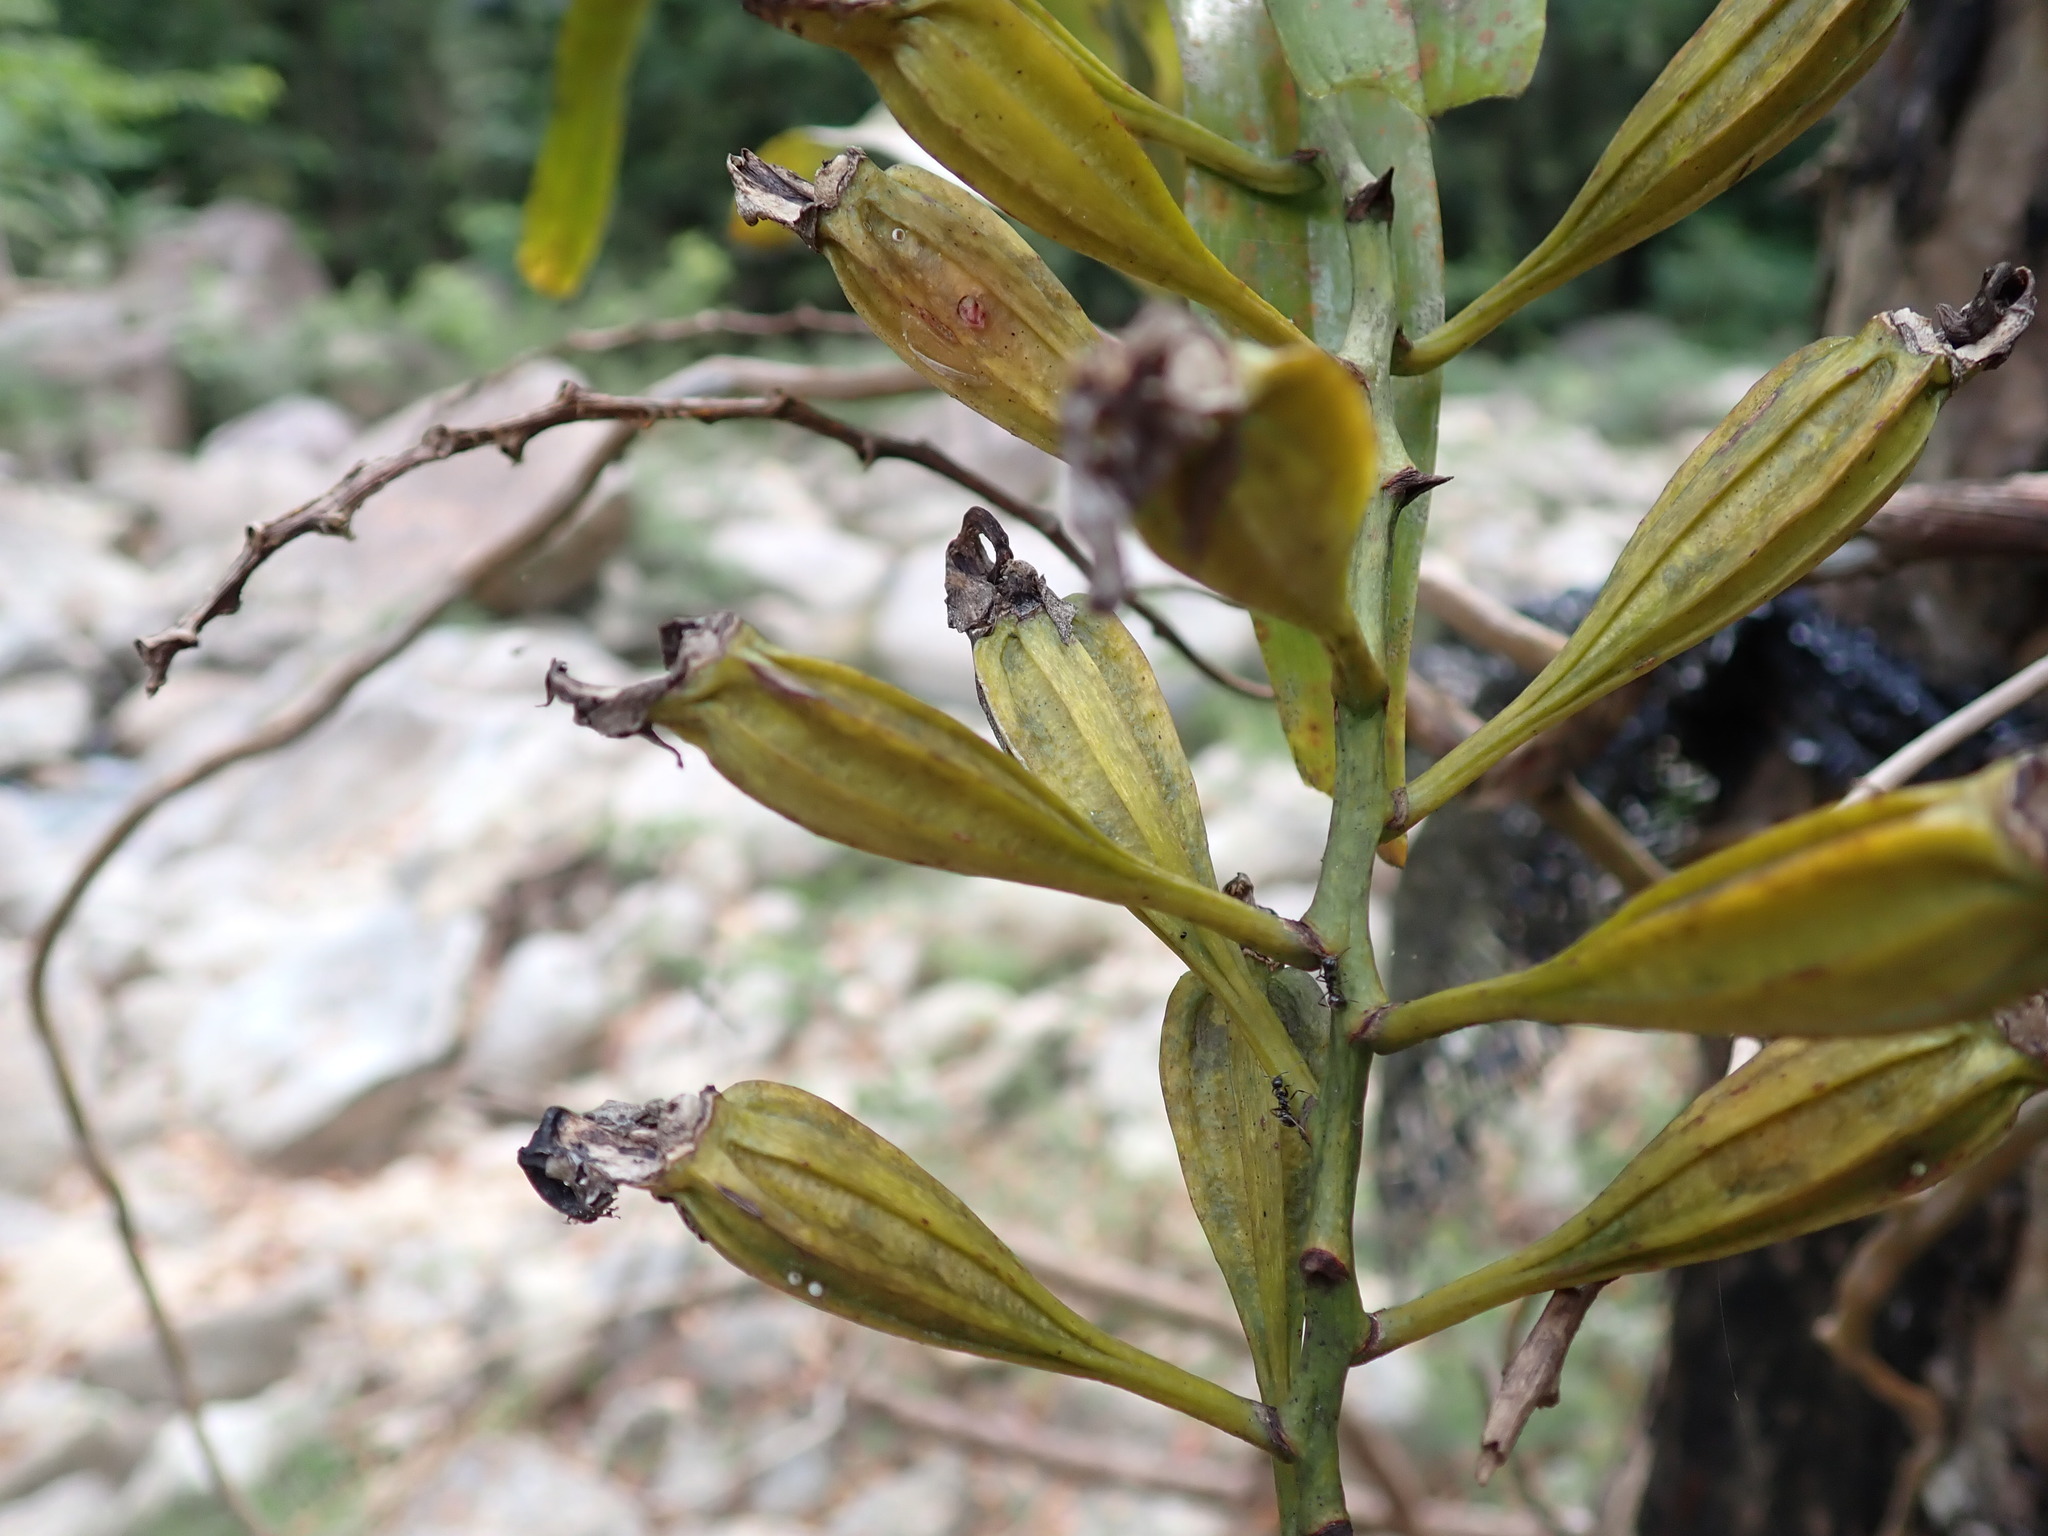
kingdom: Plantae
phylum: Tracheophyta
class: Liliopsida
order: Asparagales
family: Orchidaceae
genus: Aerides
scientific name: Aerides falcata
